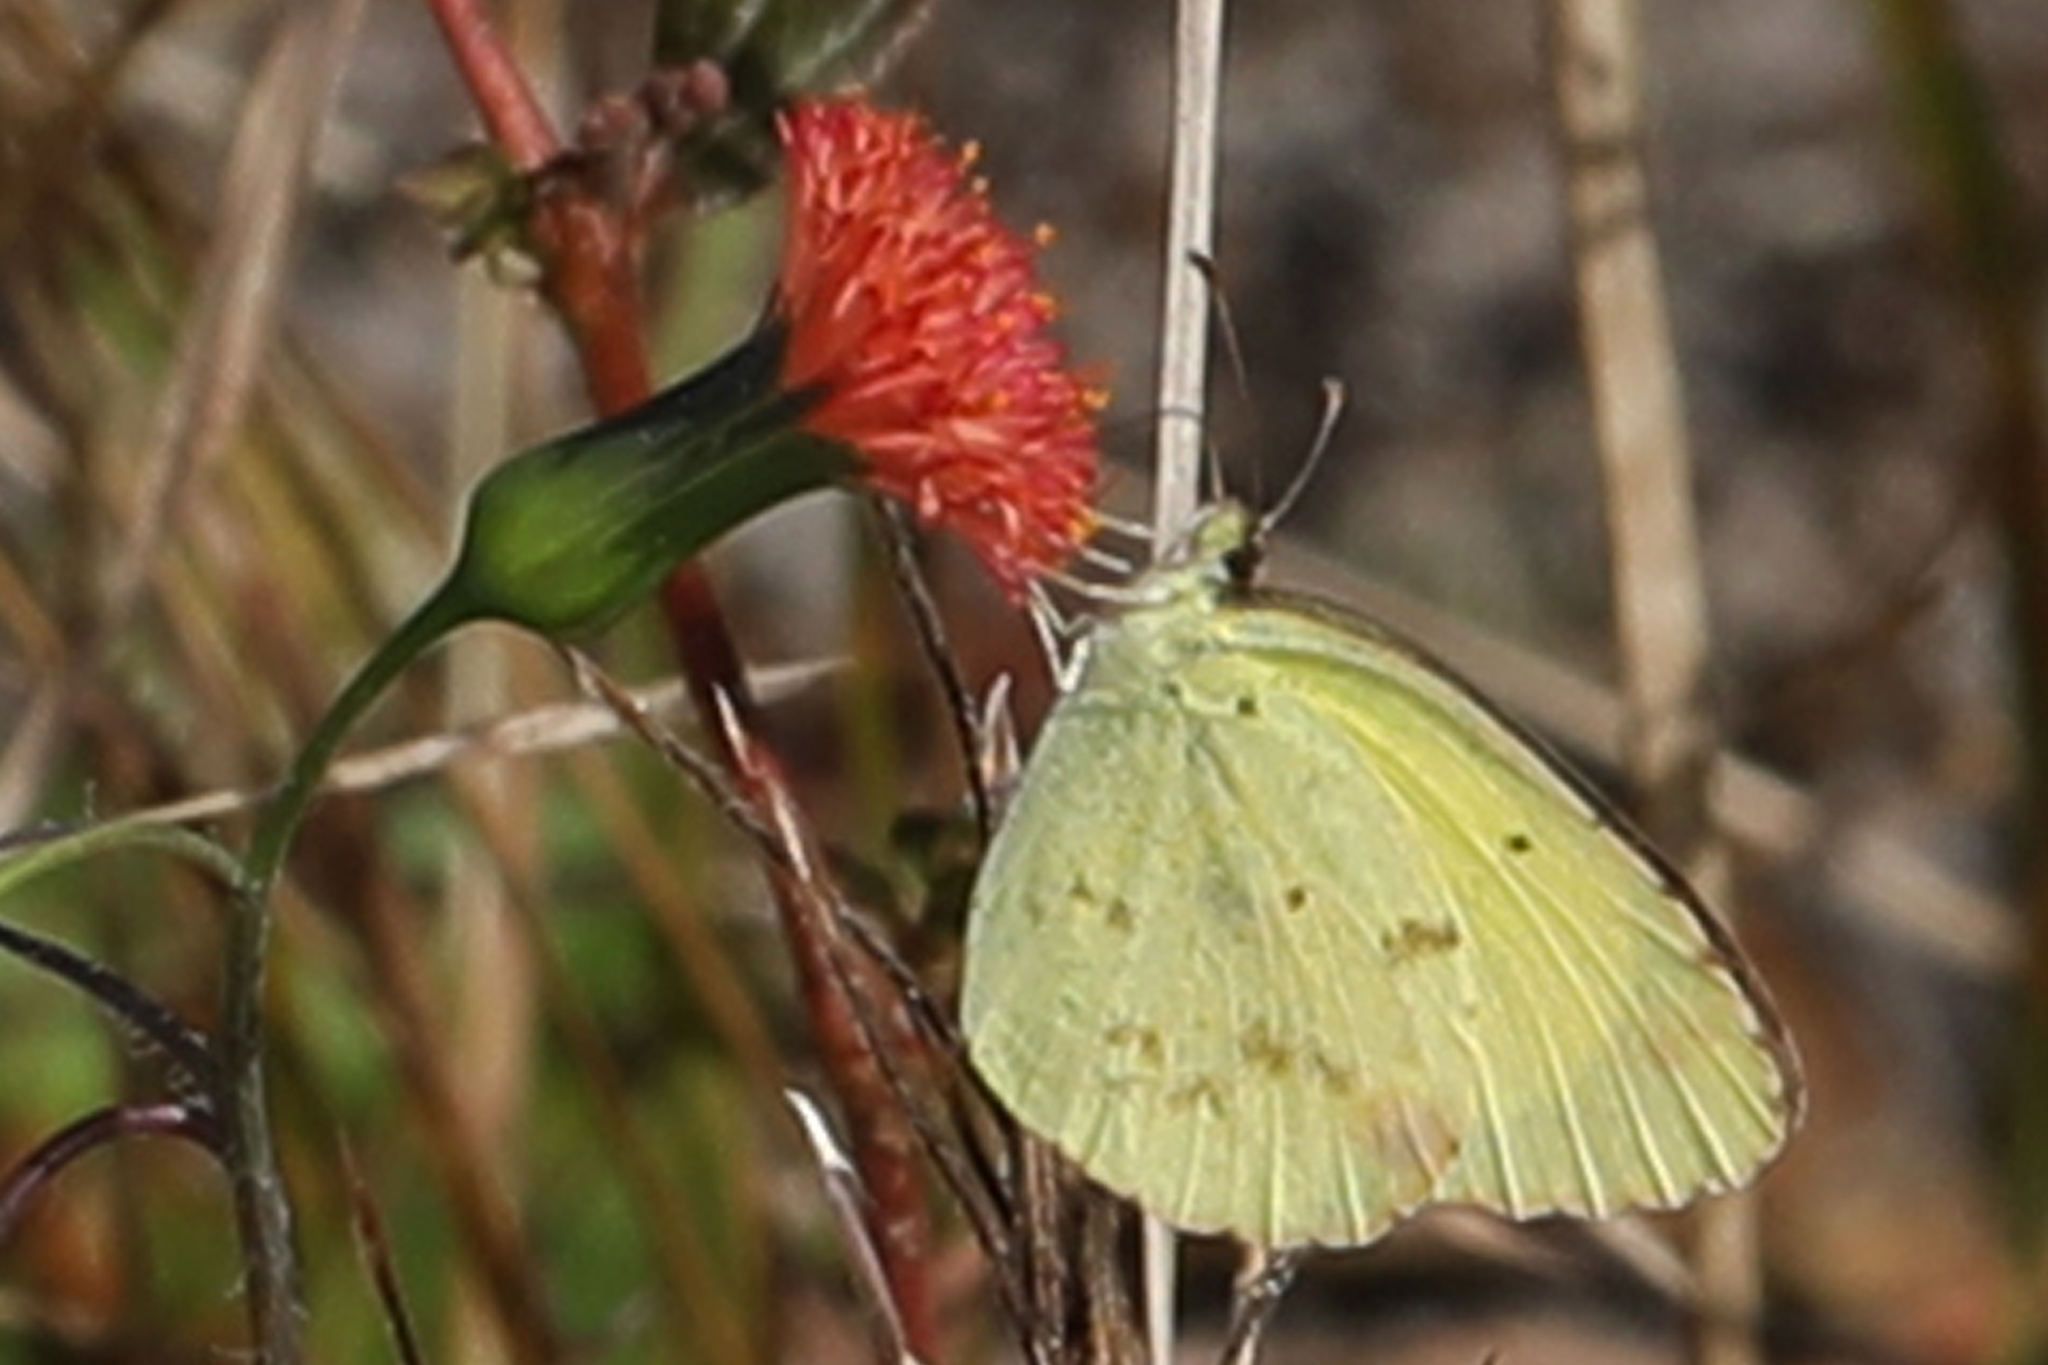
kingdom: Animalia
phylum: Arthropoda
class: Insecta
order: Lepidoptera
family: Pieridae
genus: Pyrisitia
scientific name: Pyrisitia lisa
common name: Little yellow
